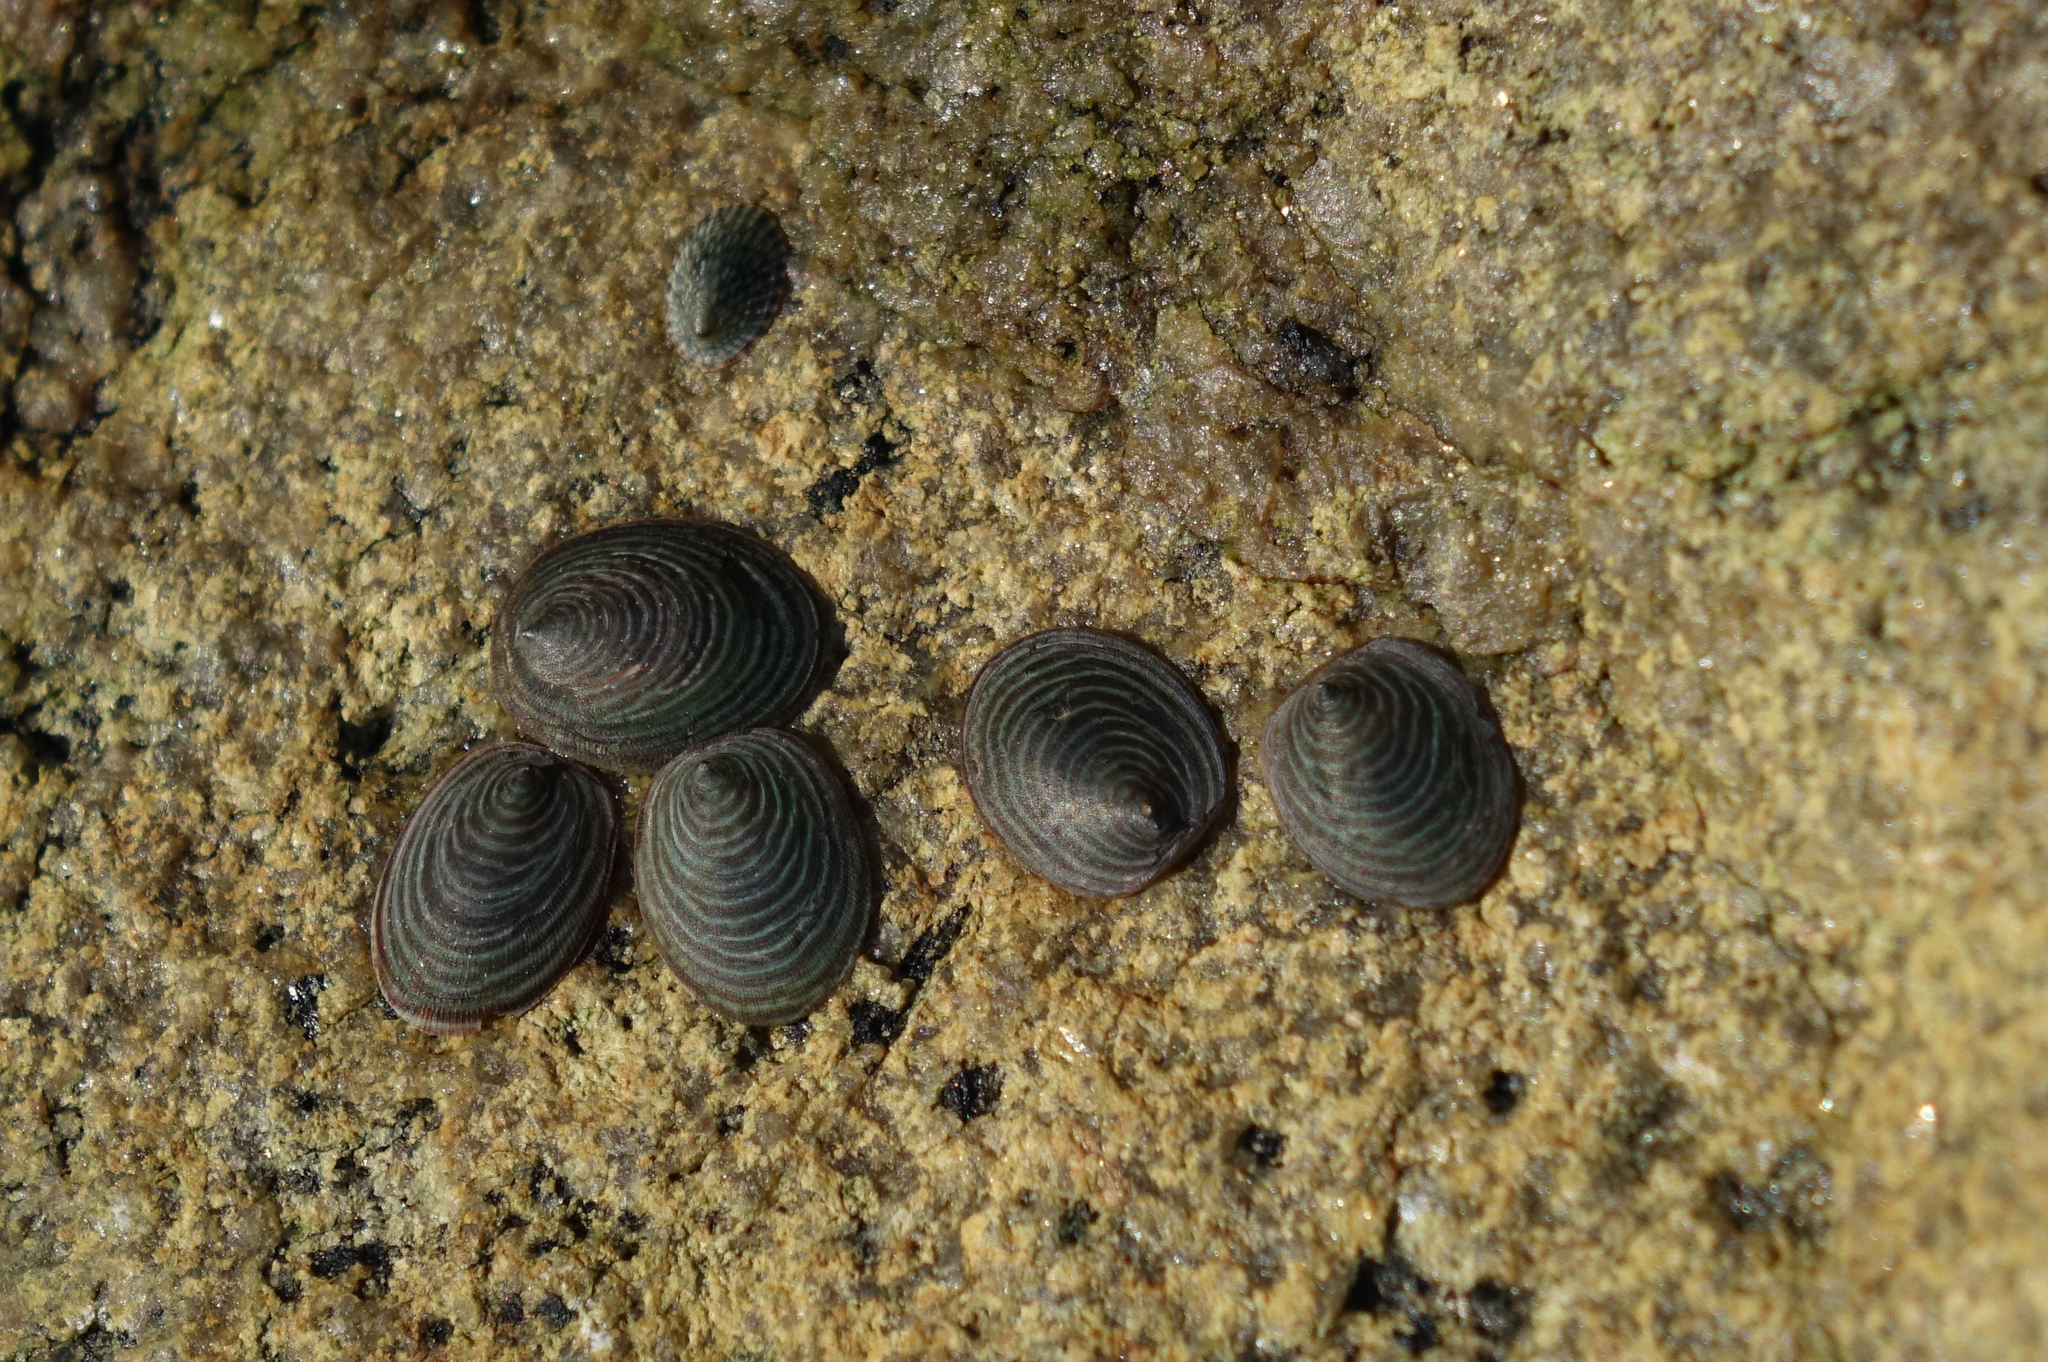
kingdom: Animalia
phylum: Mollusca
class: Gastropoda
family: Lottiidae
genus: Atalacmea
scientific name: Atalacmea fragilis
